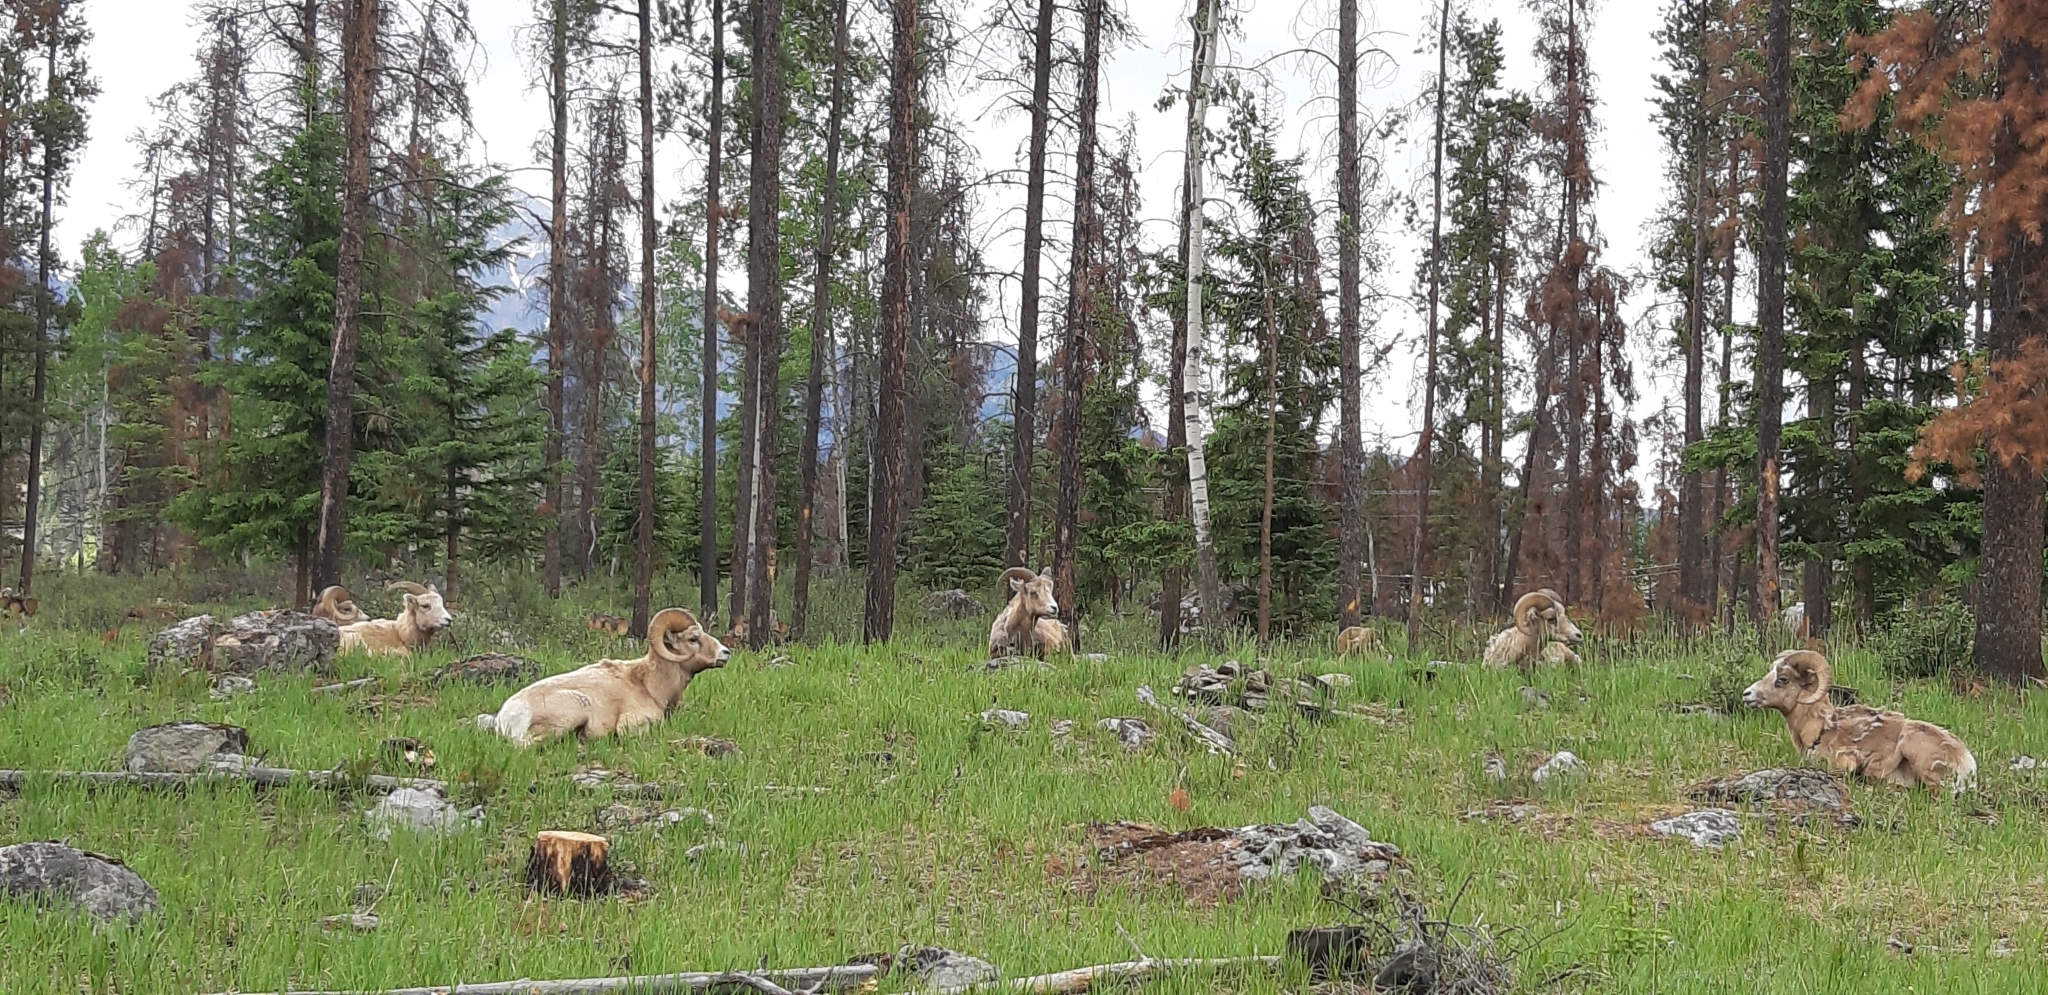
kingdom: Animalia
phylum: Chordata
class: Mammalia
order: Artiodactyla
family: Bovidae
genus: Ovis
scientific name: Ovis canadensis
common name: Bighorn sheep
